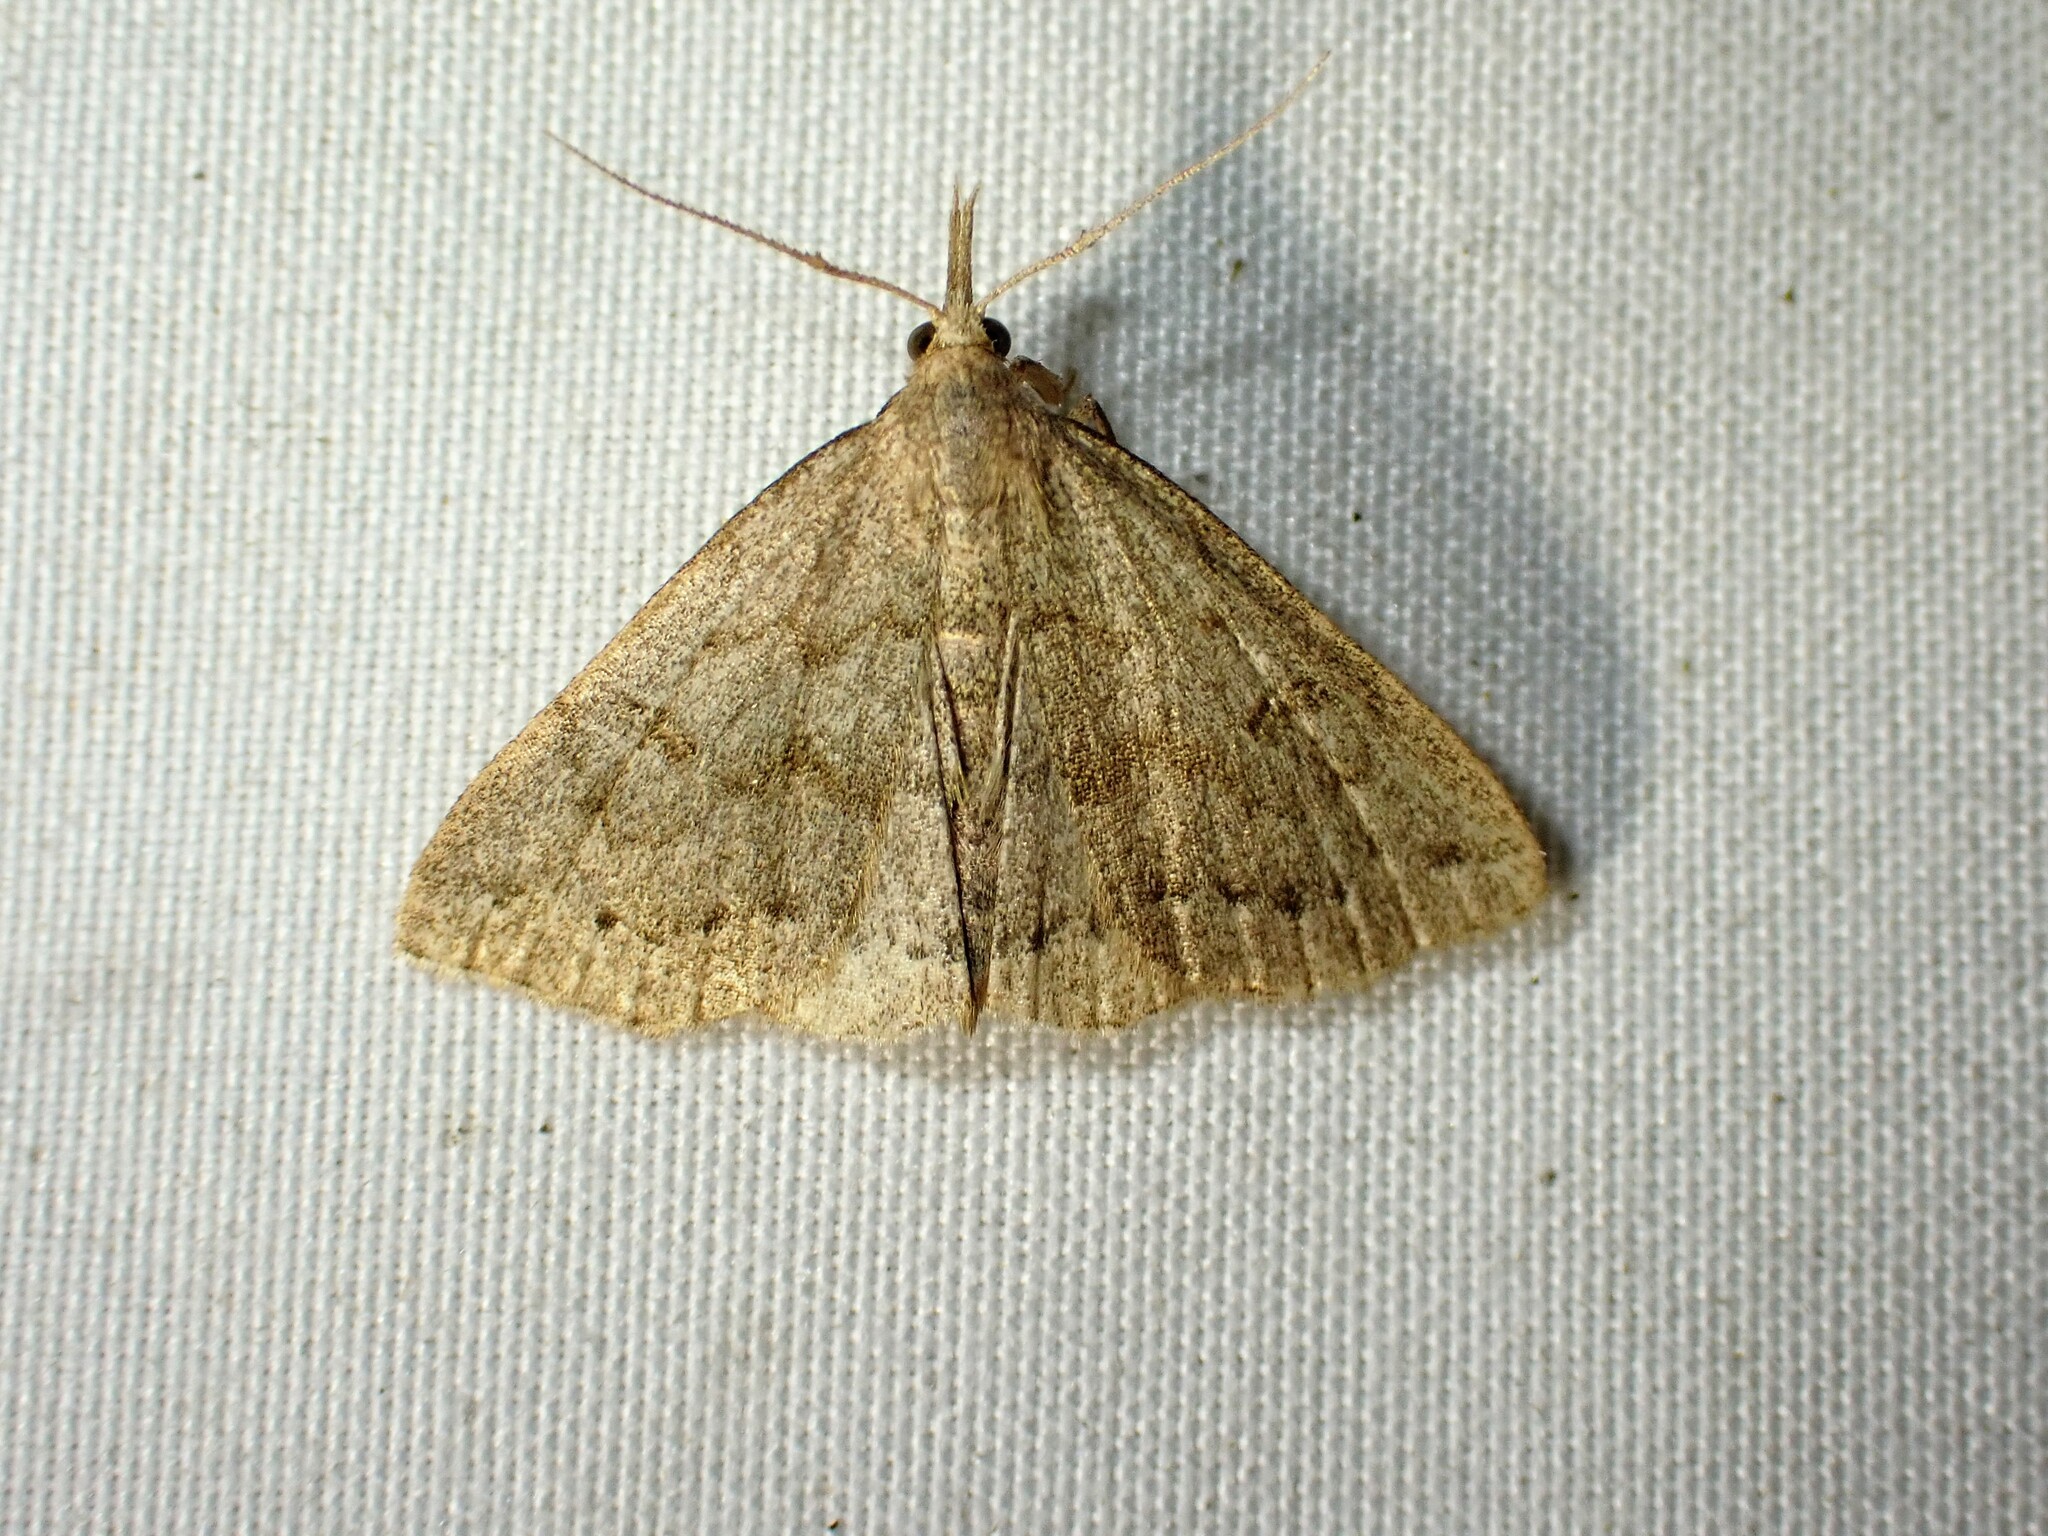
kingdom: Animalia
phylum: Arthropoda
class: Insecta
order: Lepidoptera
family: Erebidae
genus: Macrochilo
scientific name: Macrochilo morbidalis
